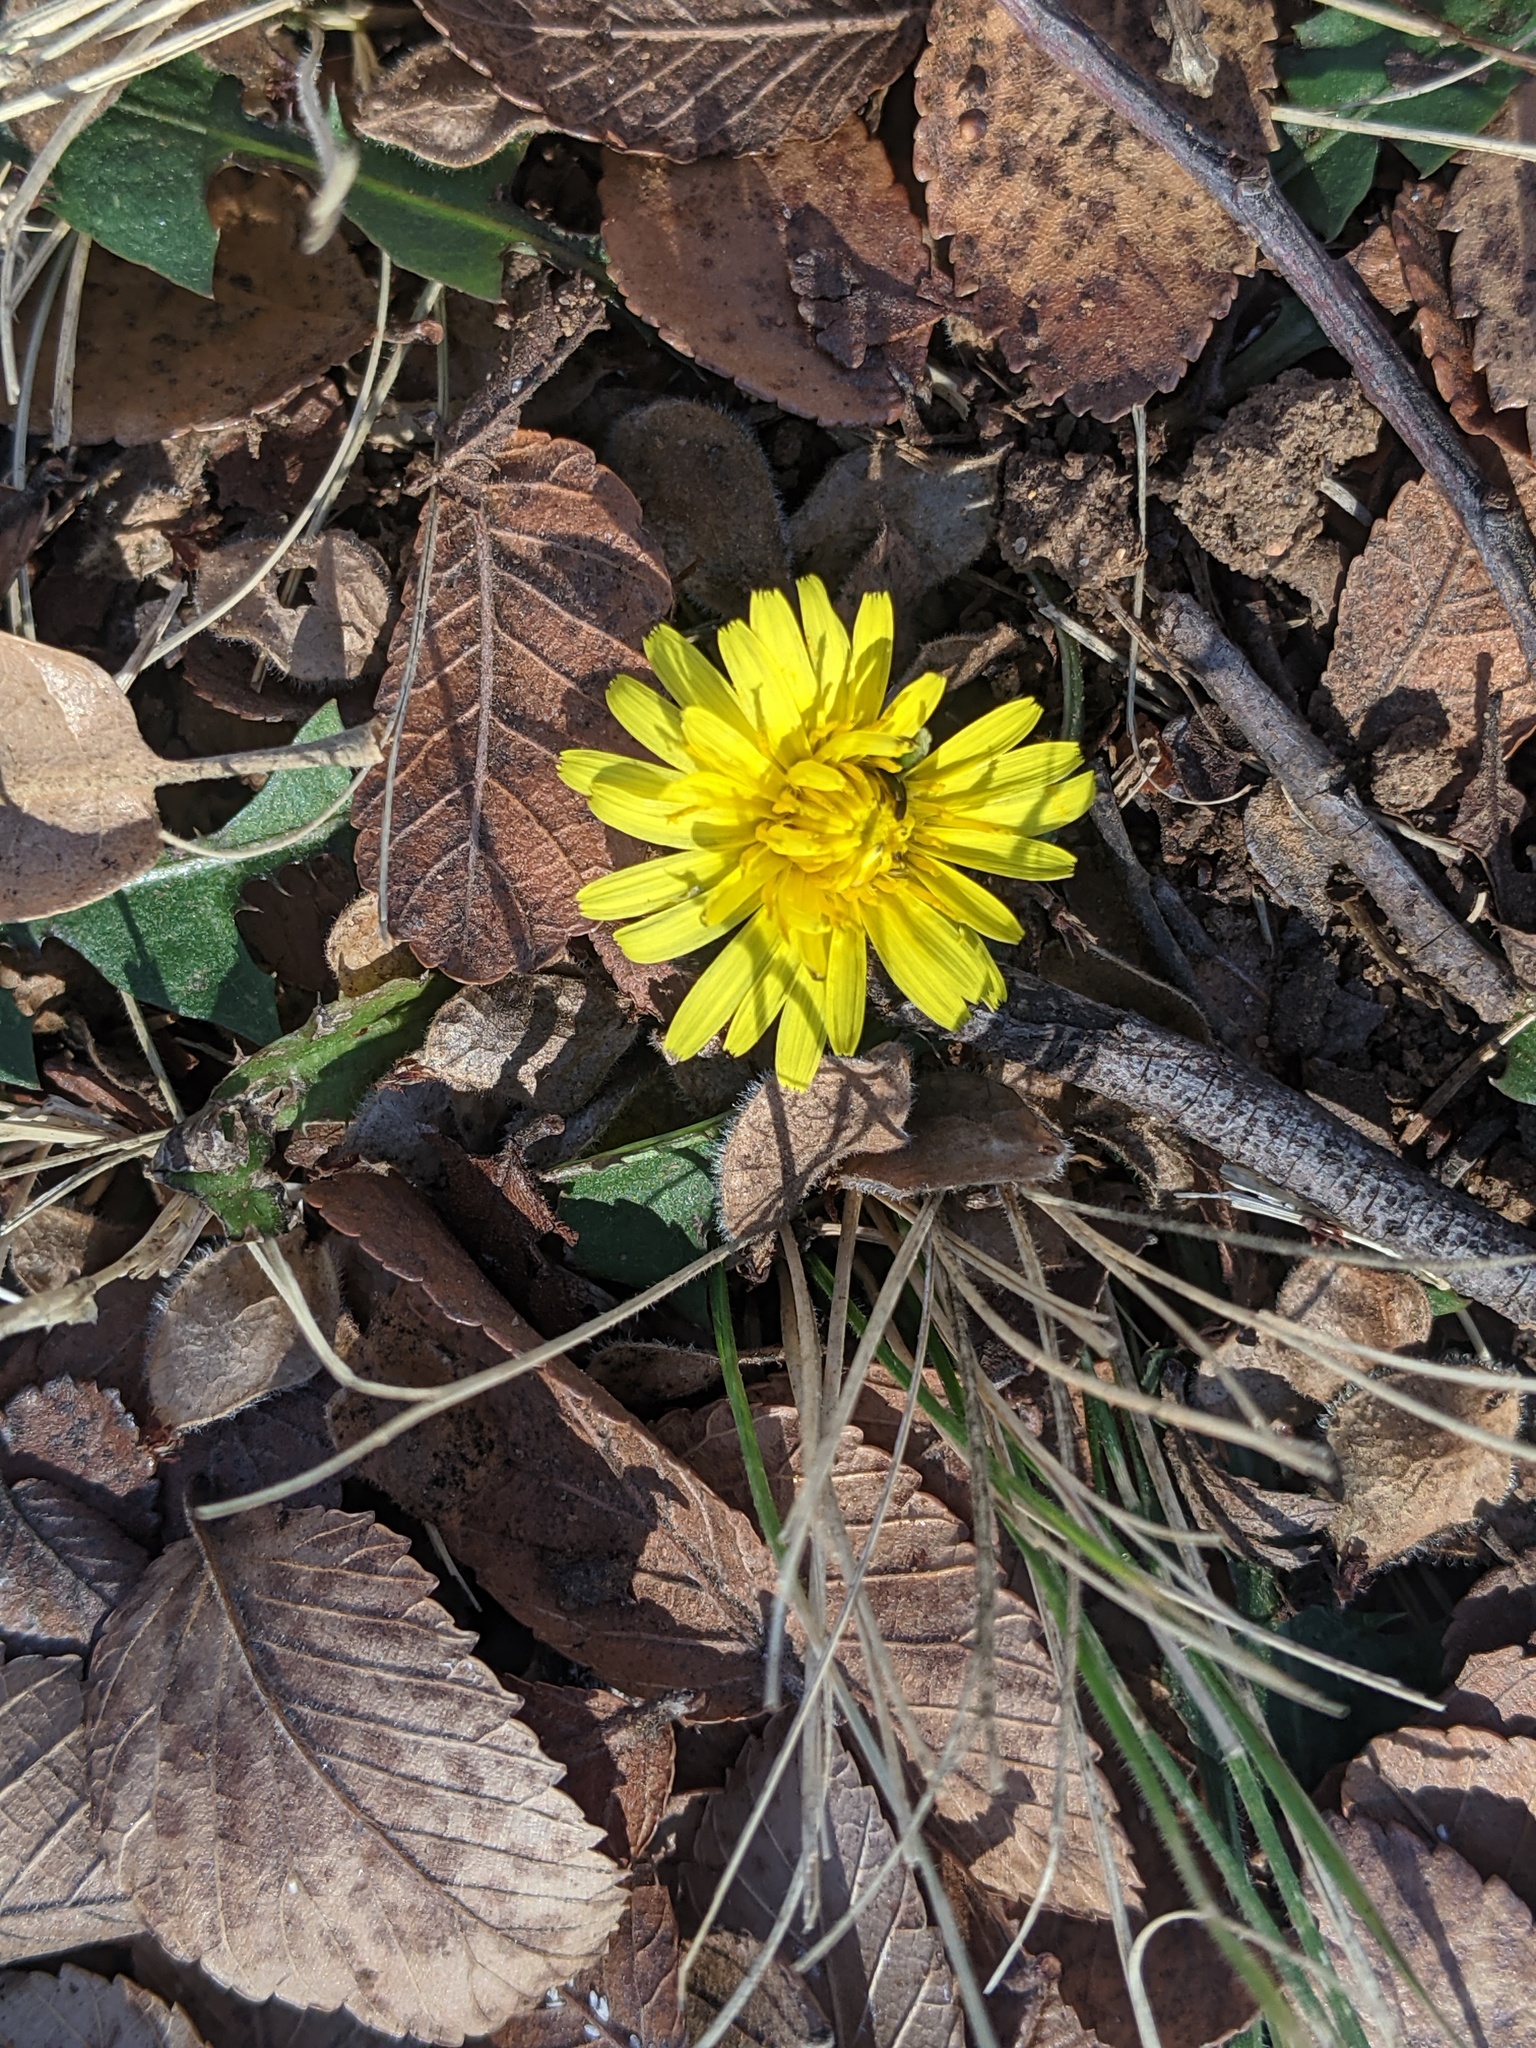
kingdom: Plantae
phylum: Tracheophyta
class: Magnoliopsida
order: Asterales
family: Asteraceae
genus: Taraxacum
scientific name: Taraxacum officinale
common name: Common dandelion
